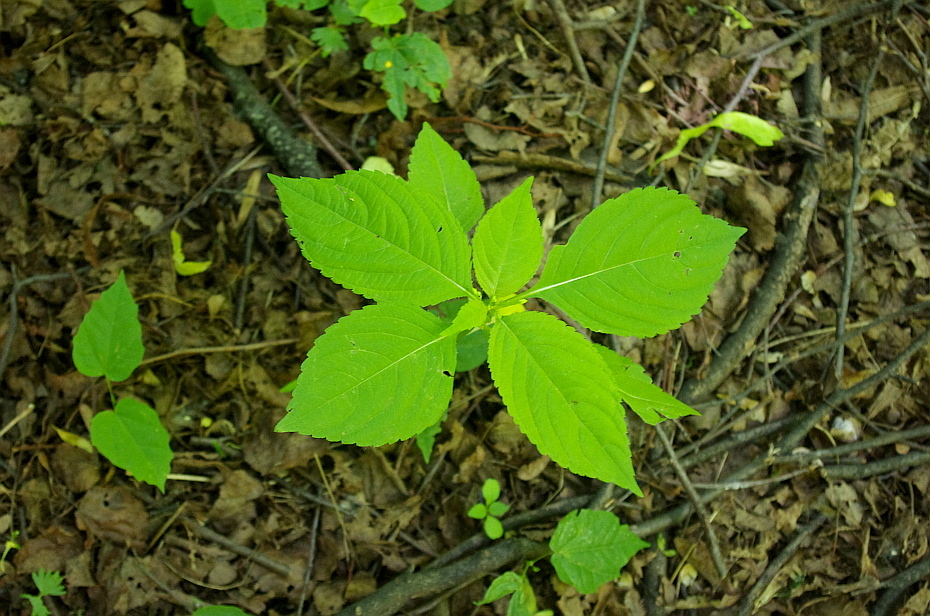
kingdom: Plantae
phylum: Tracheophyta
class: Magnoliopsida
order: Ericales
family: Balsaminaceae
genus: Impatiens
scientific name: Impatiens parviflora
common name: Small balsam
